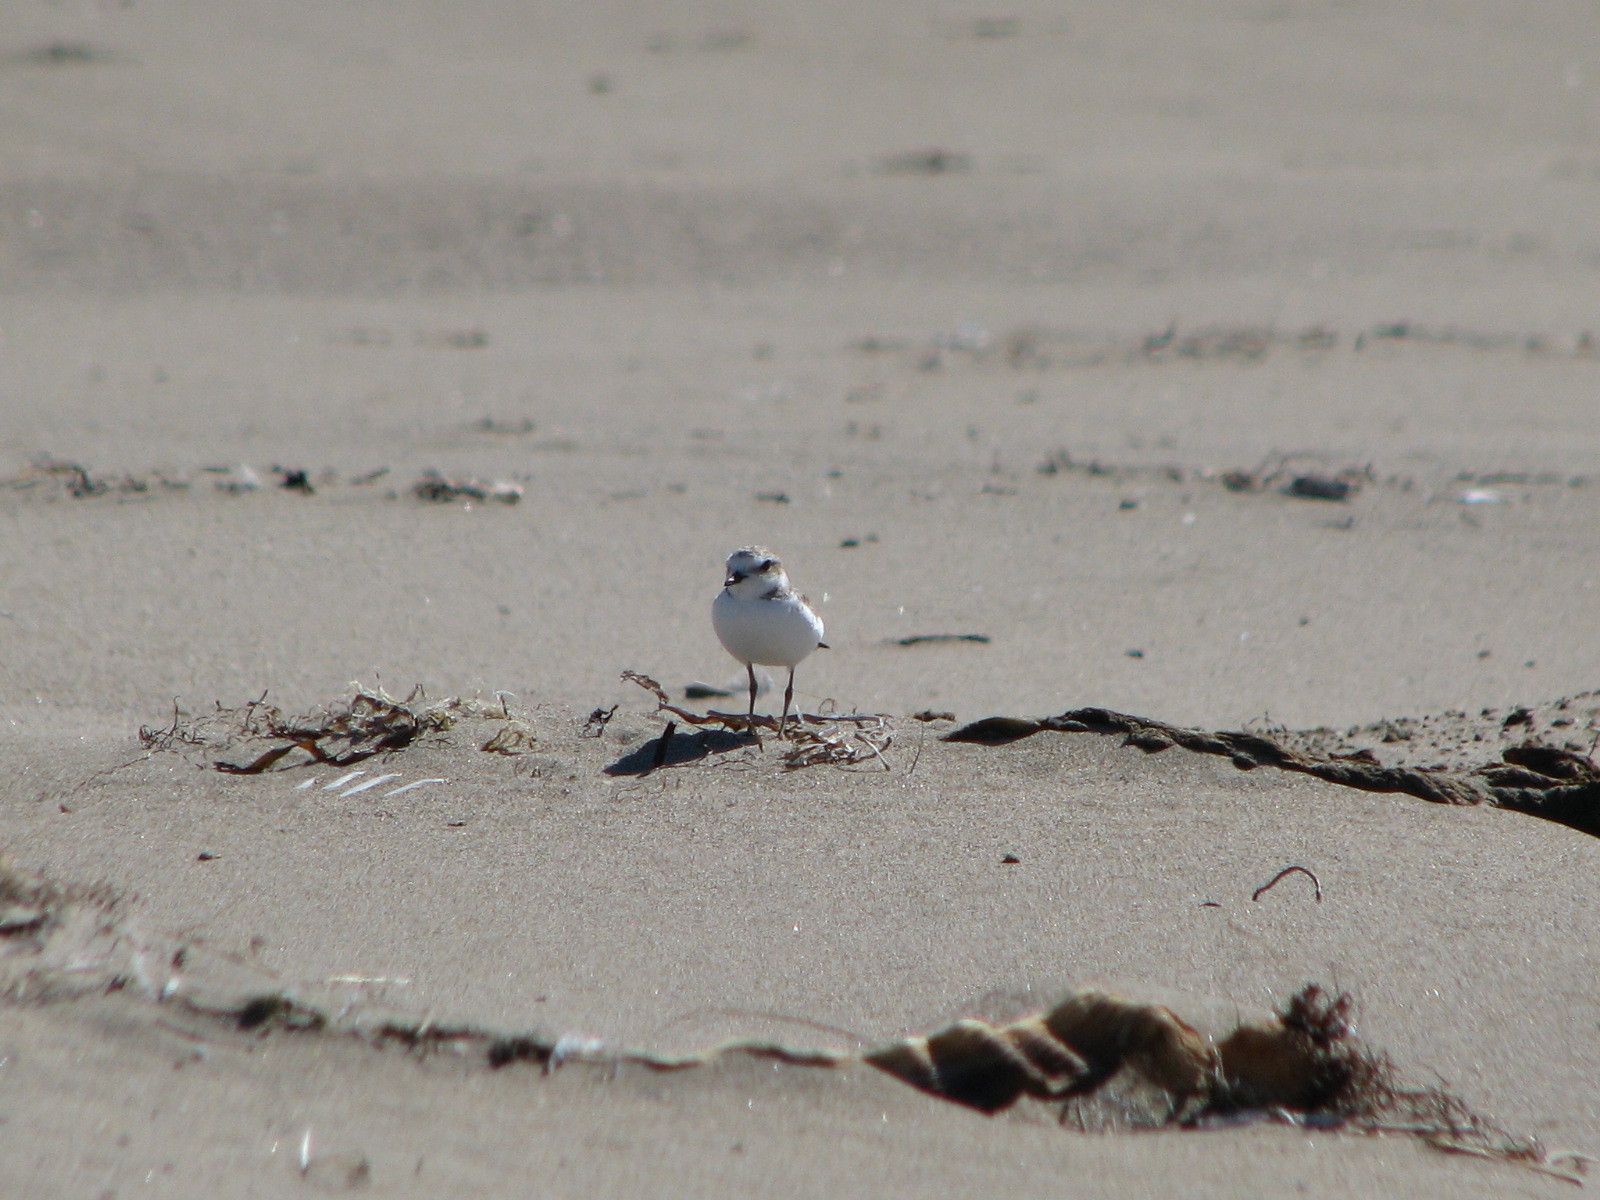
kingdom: Animalia
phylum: Chordata
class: Aves
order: Charadriiformes
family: Charadriidae
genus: Anarhynchus
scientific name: Anarhynchus
